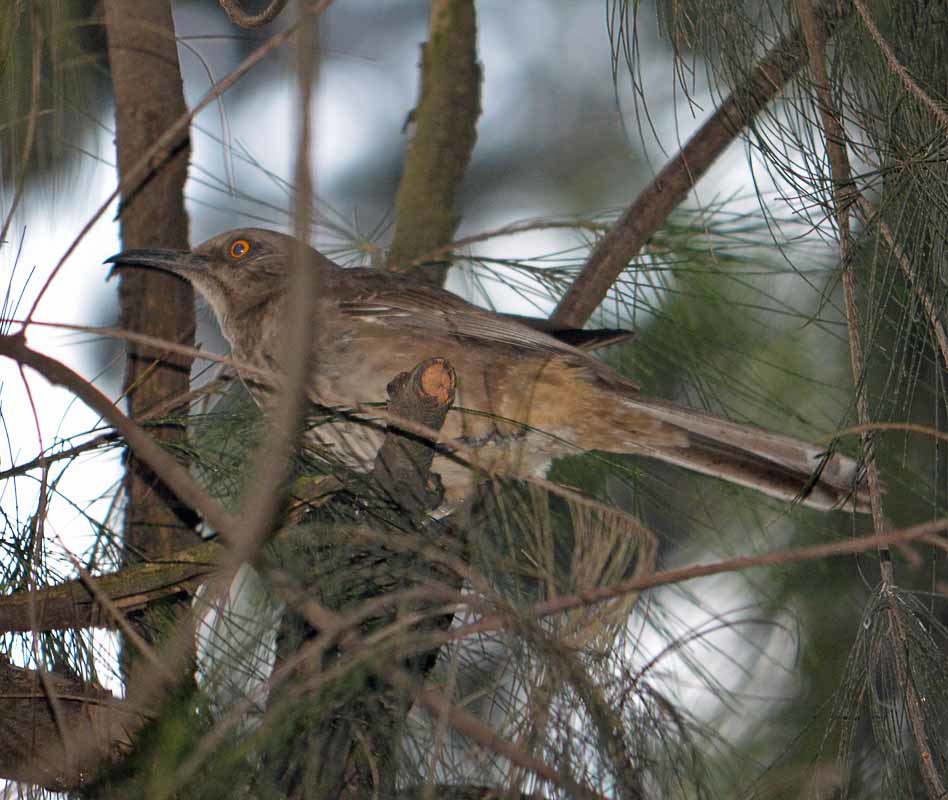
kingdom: Animalia
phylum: Chordata
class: Aves
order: Passeriformes
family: Mimidae
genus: Toxostoma
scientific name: Toxostoma curvirostre
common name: Curve-billed thrasher
